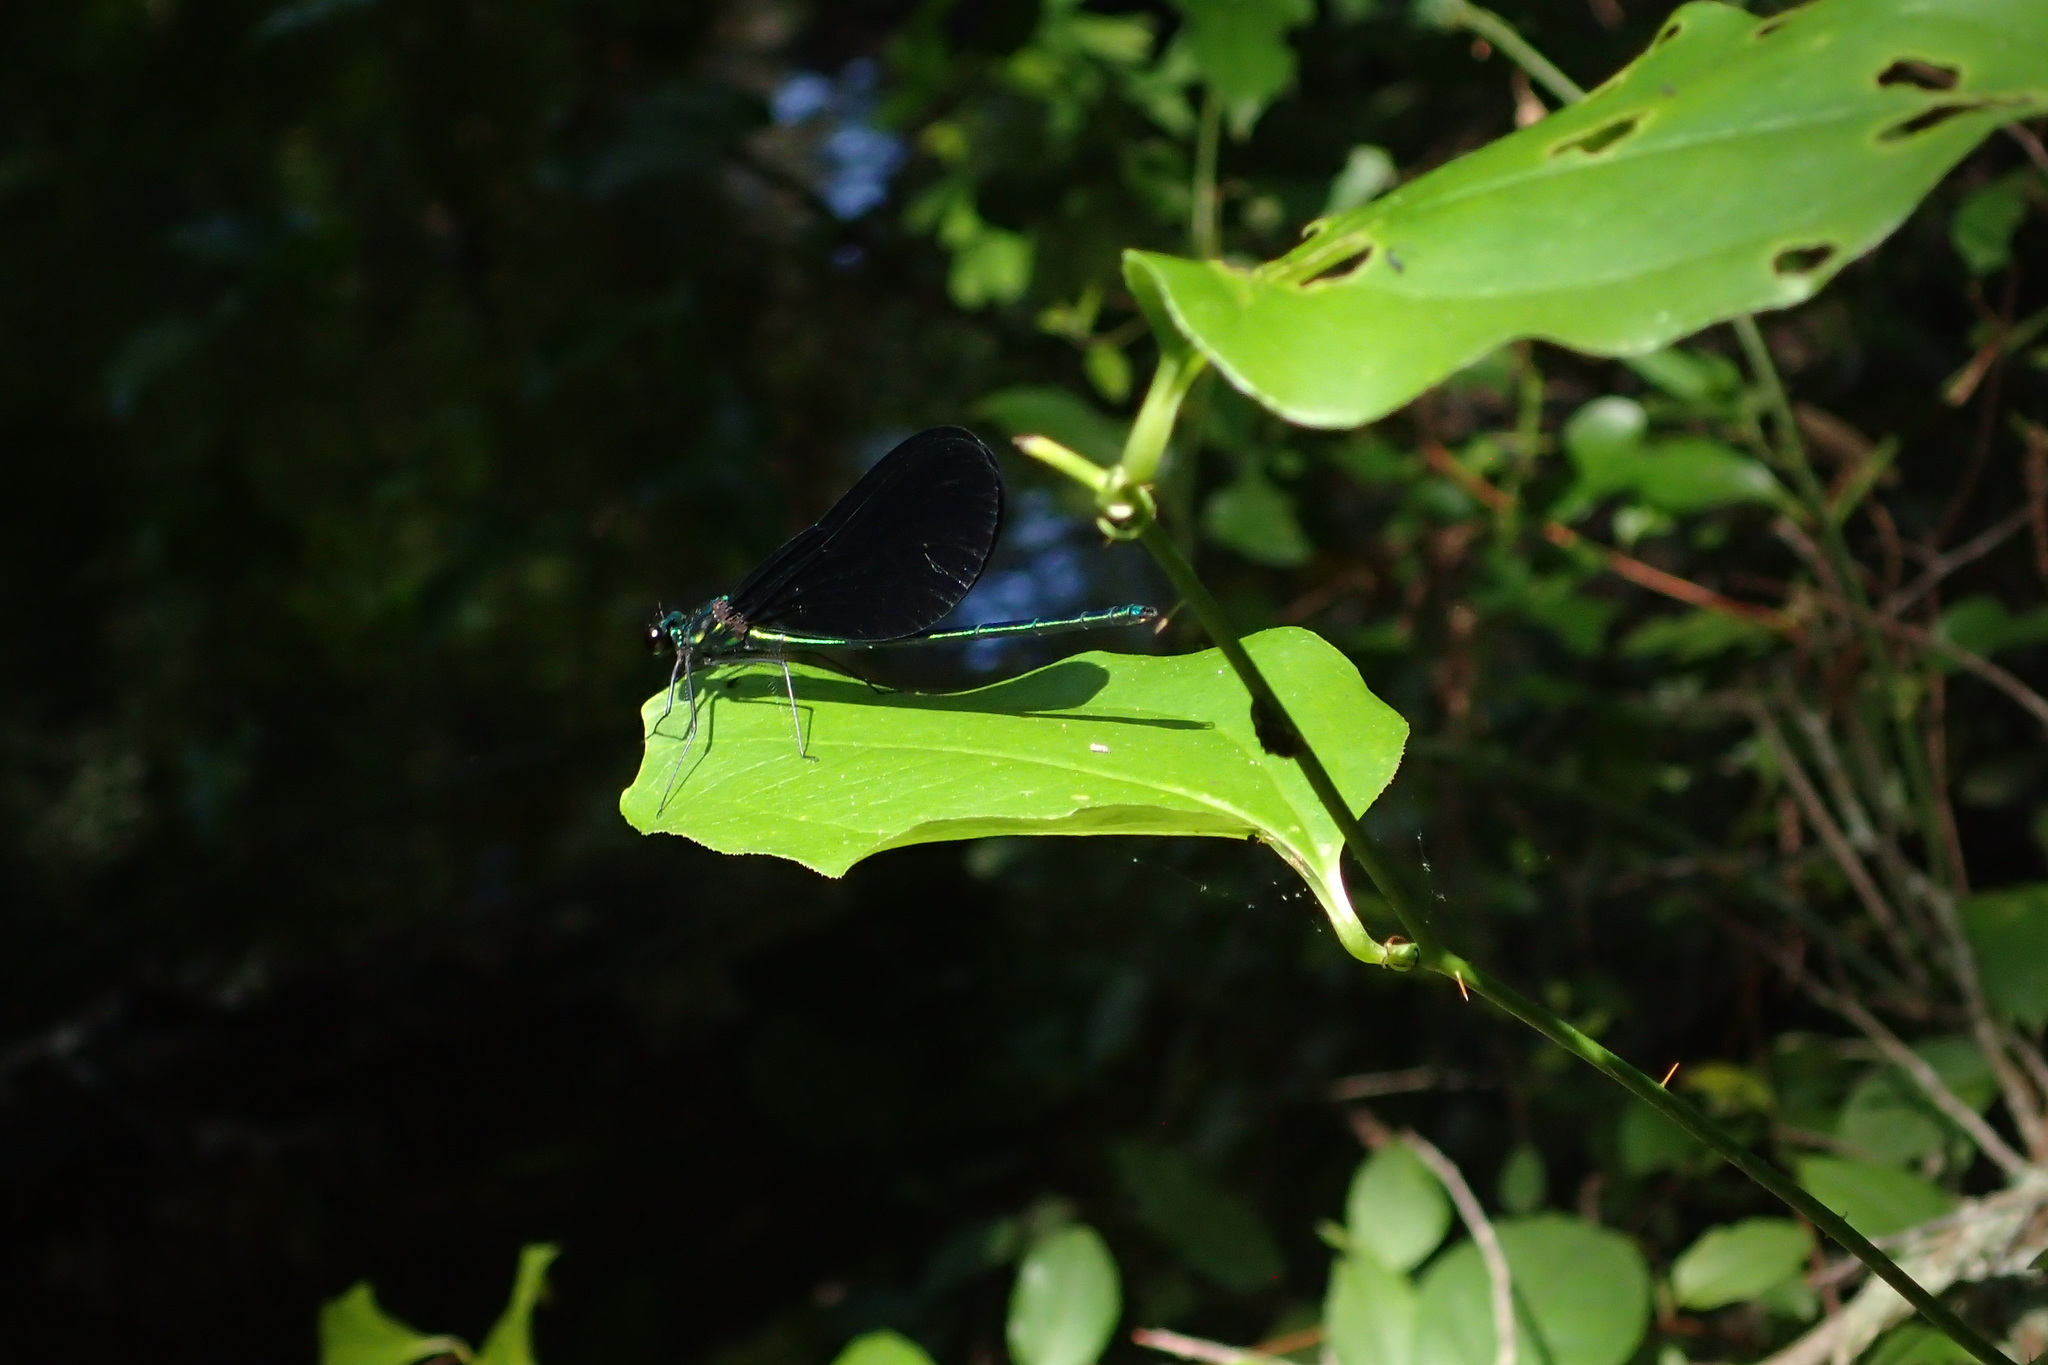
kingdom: Animalia
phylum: Arthropoda
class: Insecta
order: Odonata
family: Calopterygidae
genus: Calopteryx
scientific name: Calopteryx maculata
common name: Ebony jewelwing
